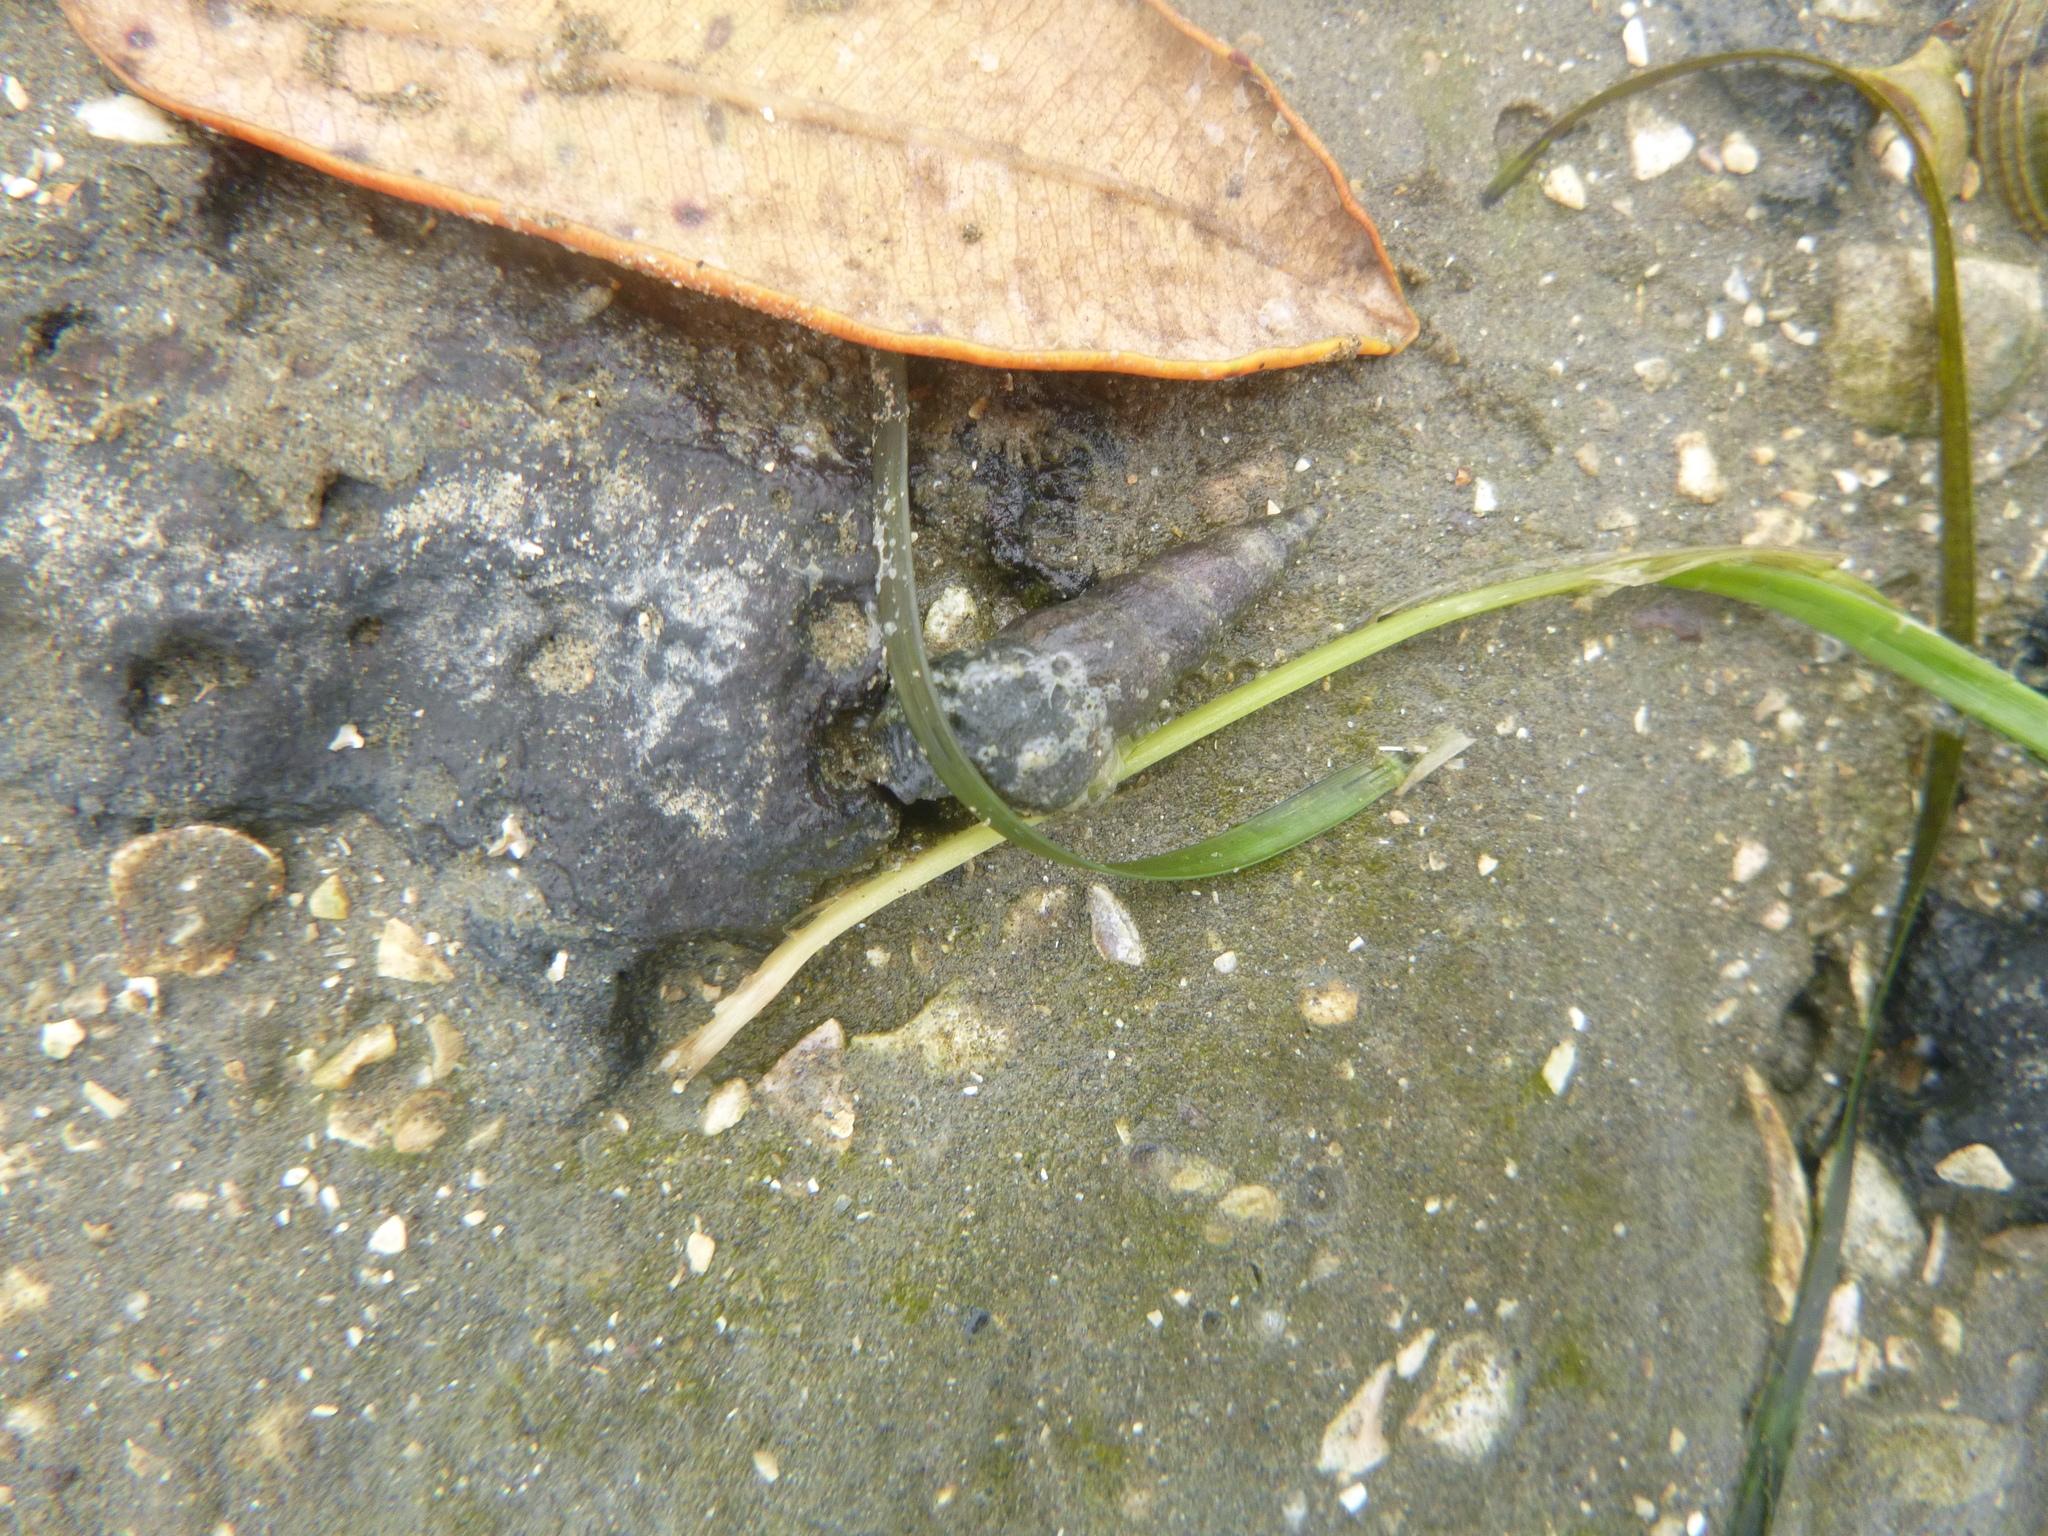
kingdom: Animalia
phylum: Mollusca
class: Gastropoda
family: Batillariidae
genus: Zeacumantus
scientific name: Zeacumantus lutulentus
